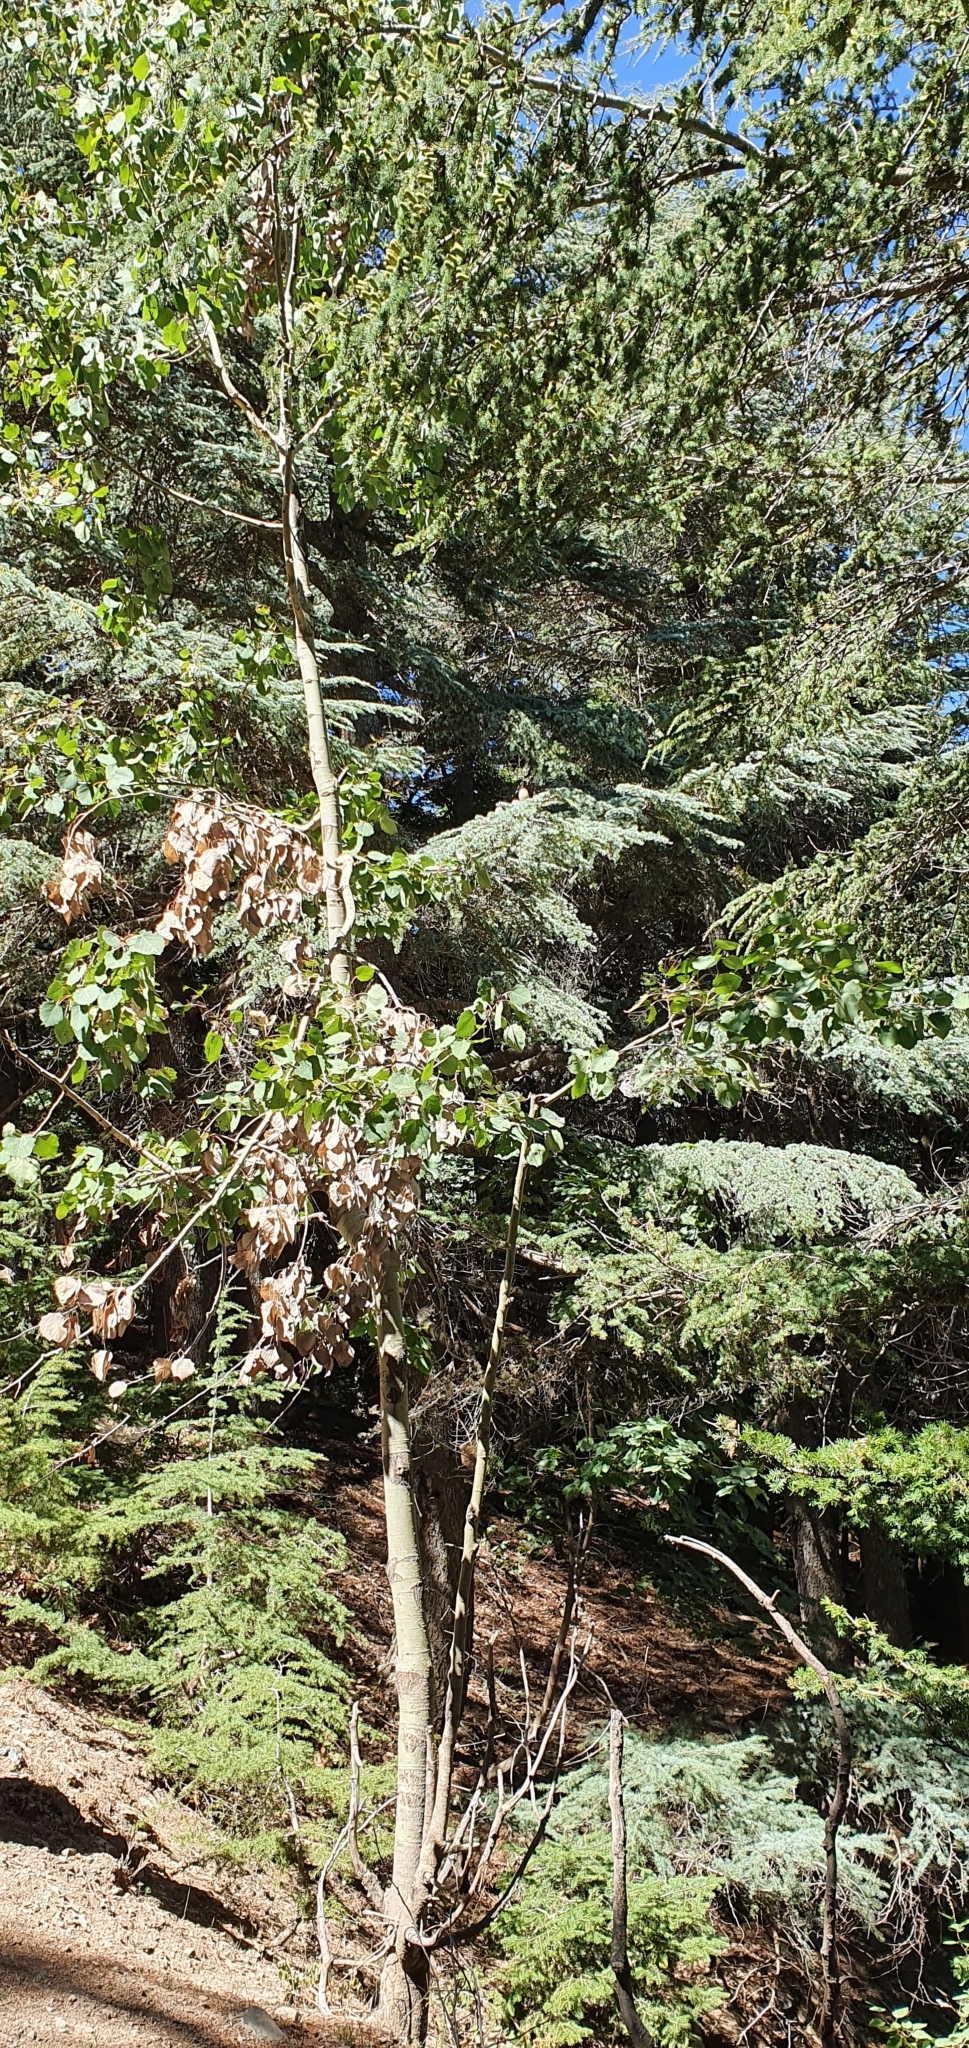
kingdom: Plantae
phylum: Tracheophyta
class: Magnoliopsida
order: Malpighiales
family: Salicaceae
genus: Populus
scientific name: Populus tremula
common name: European aspen
